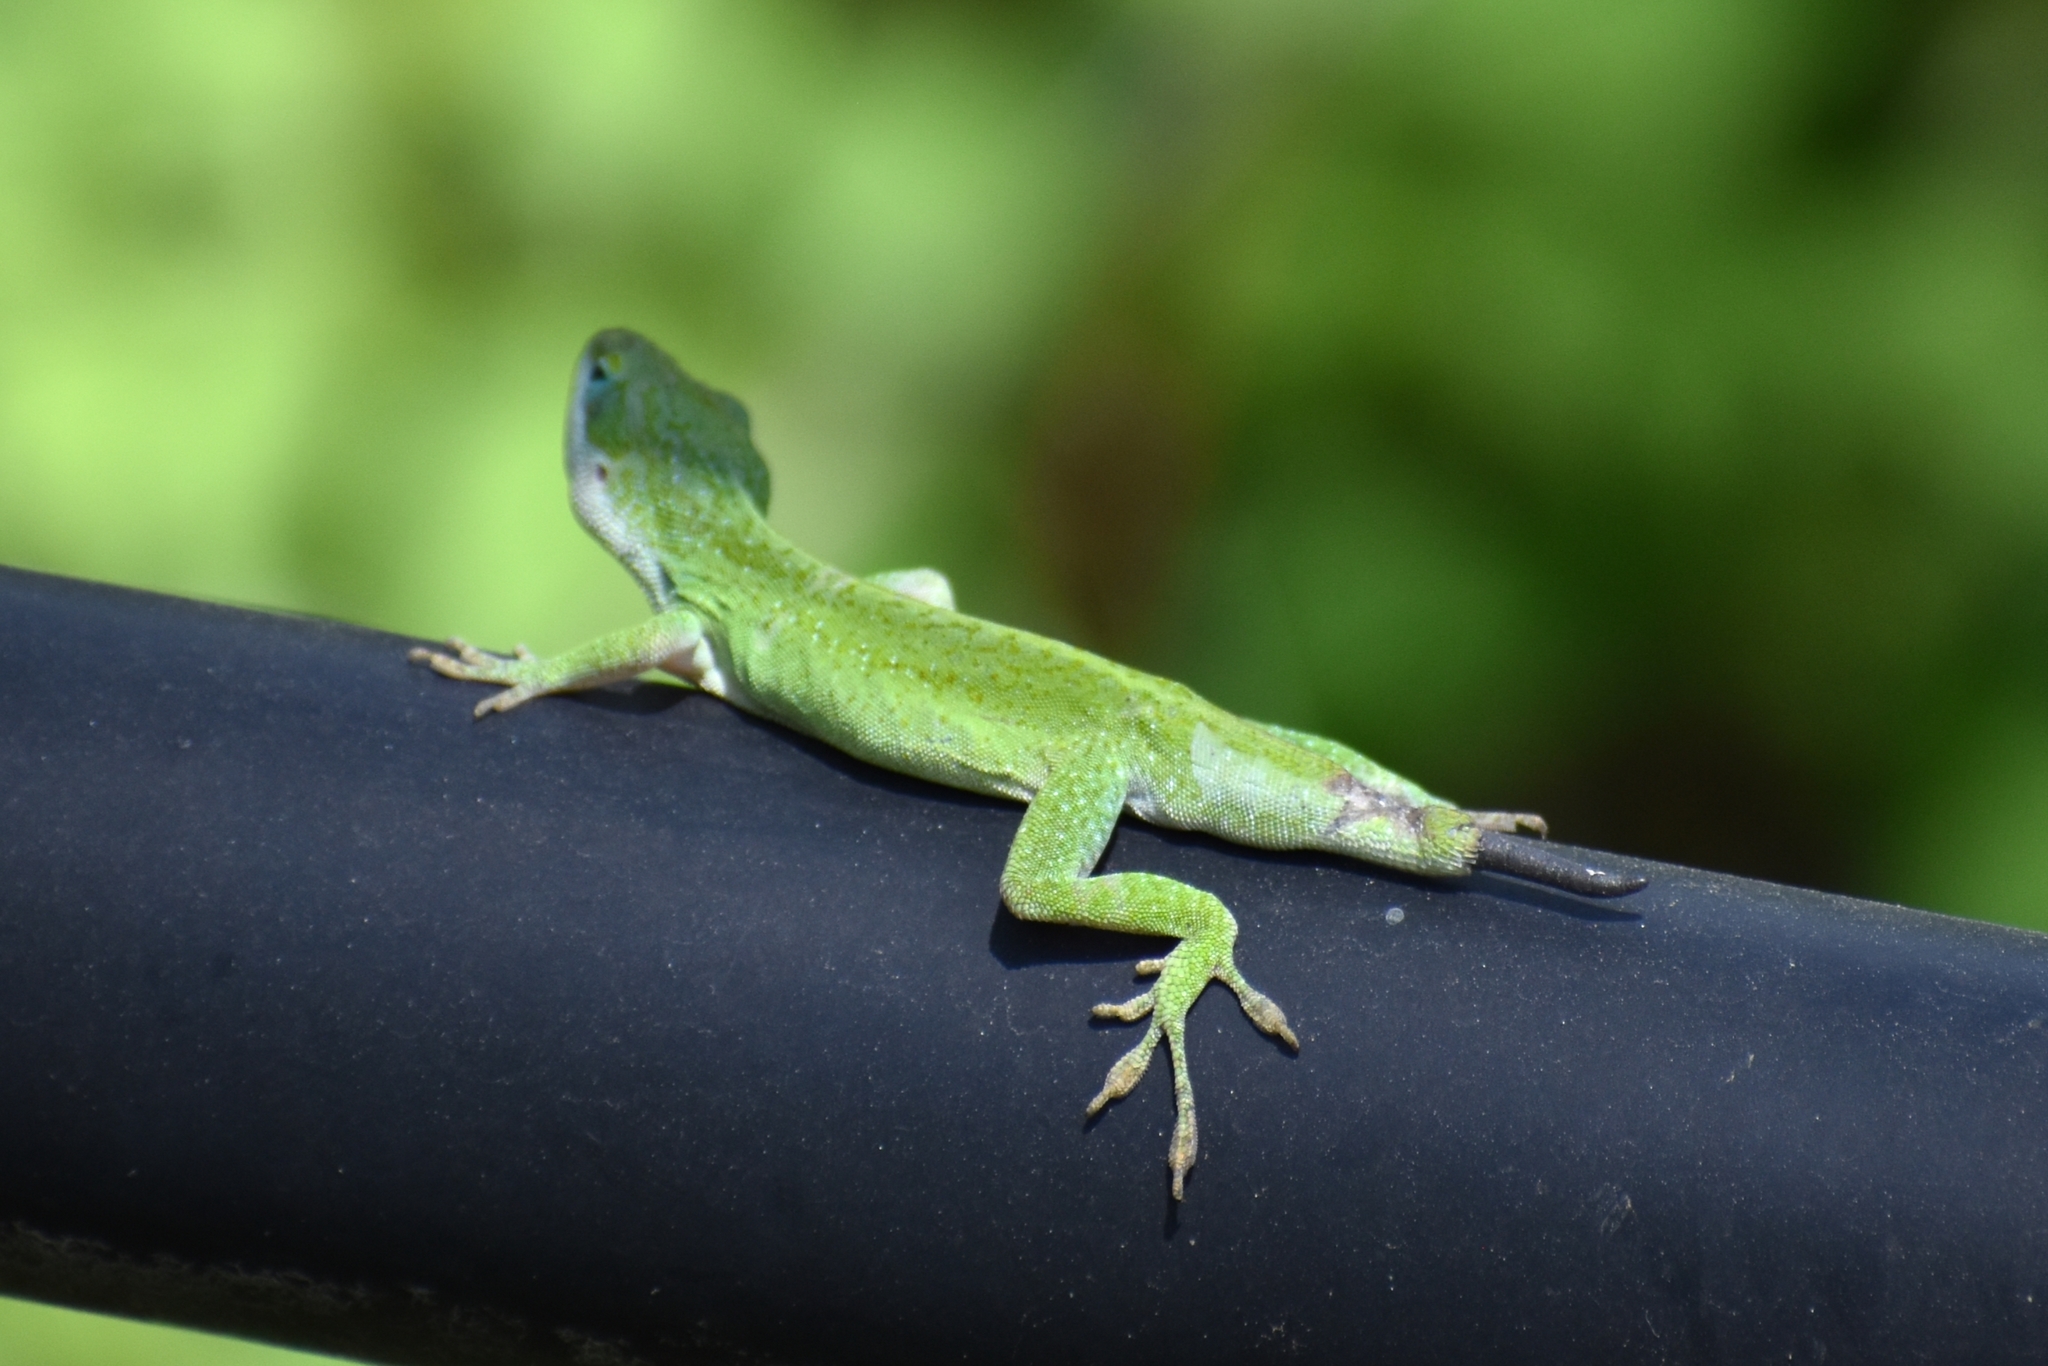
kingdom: Animalia
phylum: Chordata
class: Squamata
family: Dactyloidae
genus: Anolis
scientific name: Anolis carolinensis
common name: Green anole
